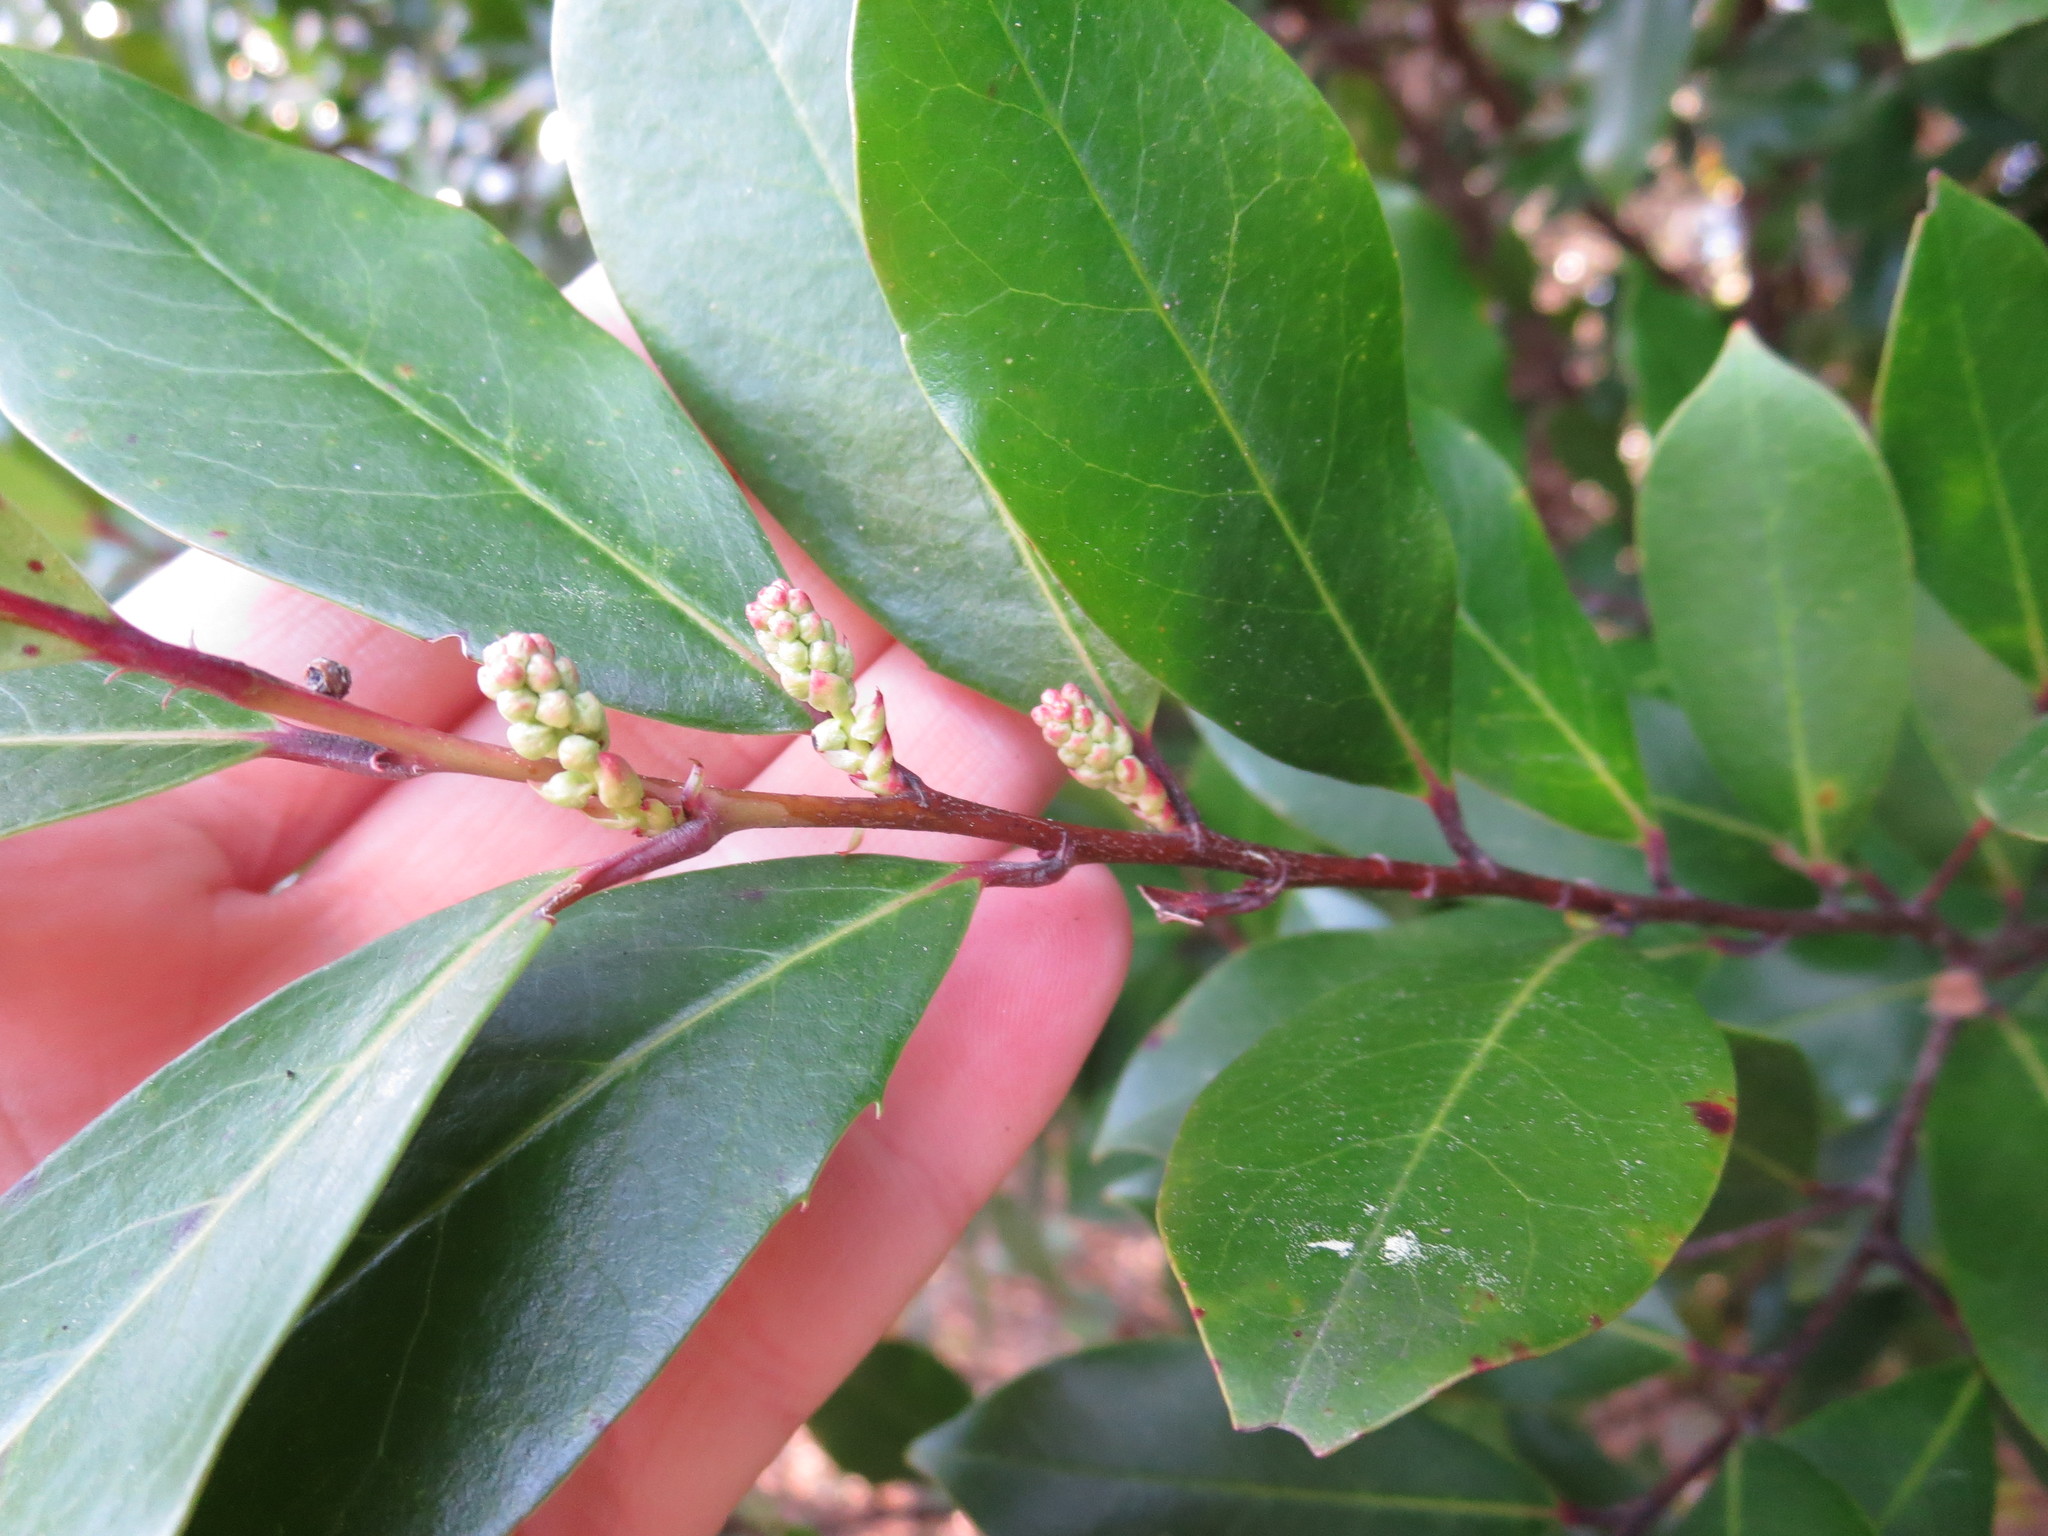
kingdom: Plantae
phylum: Tracheophyta
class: Magnoliopsida
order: Rosales
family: Rosaceae
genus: Prunus
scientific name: Prunus caroliniana
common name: Carolina laurel cherry
